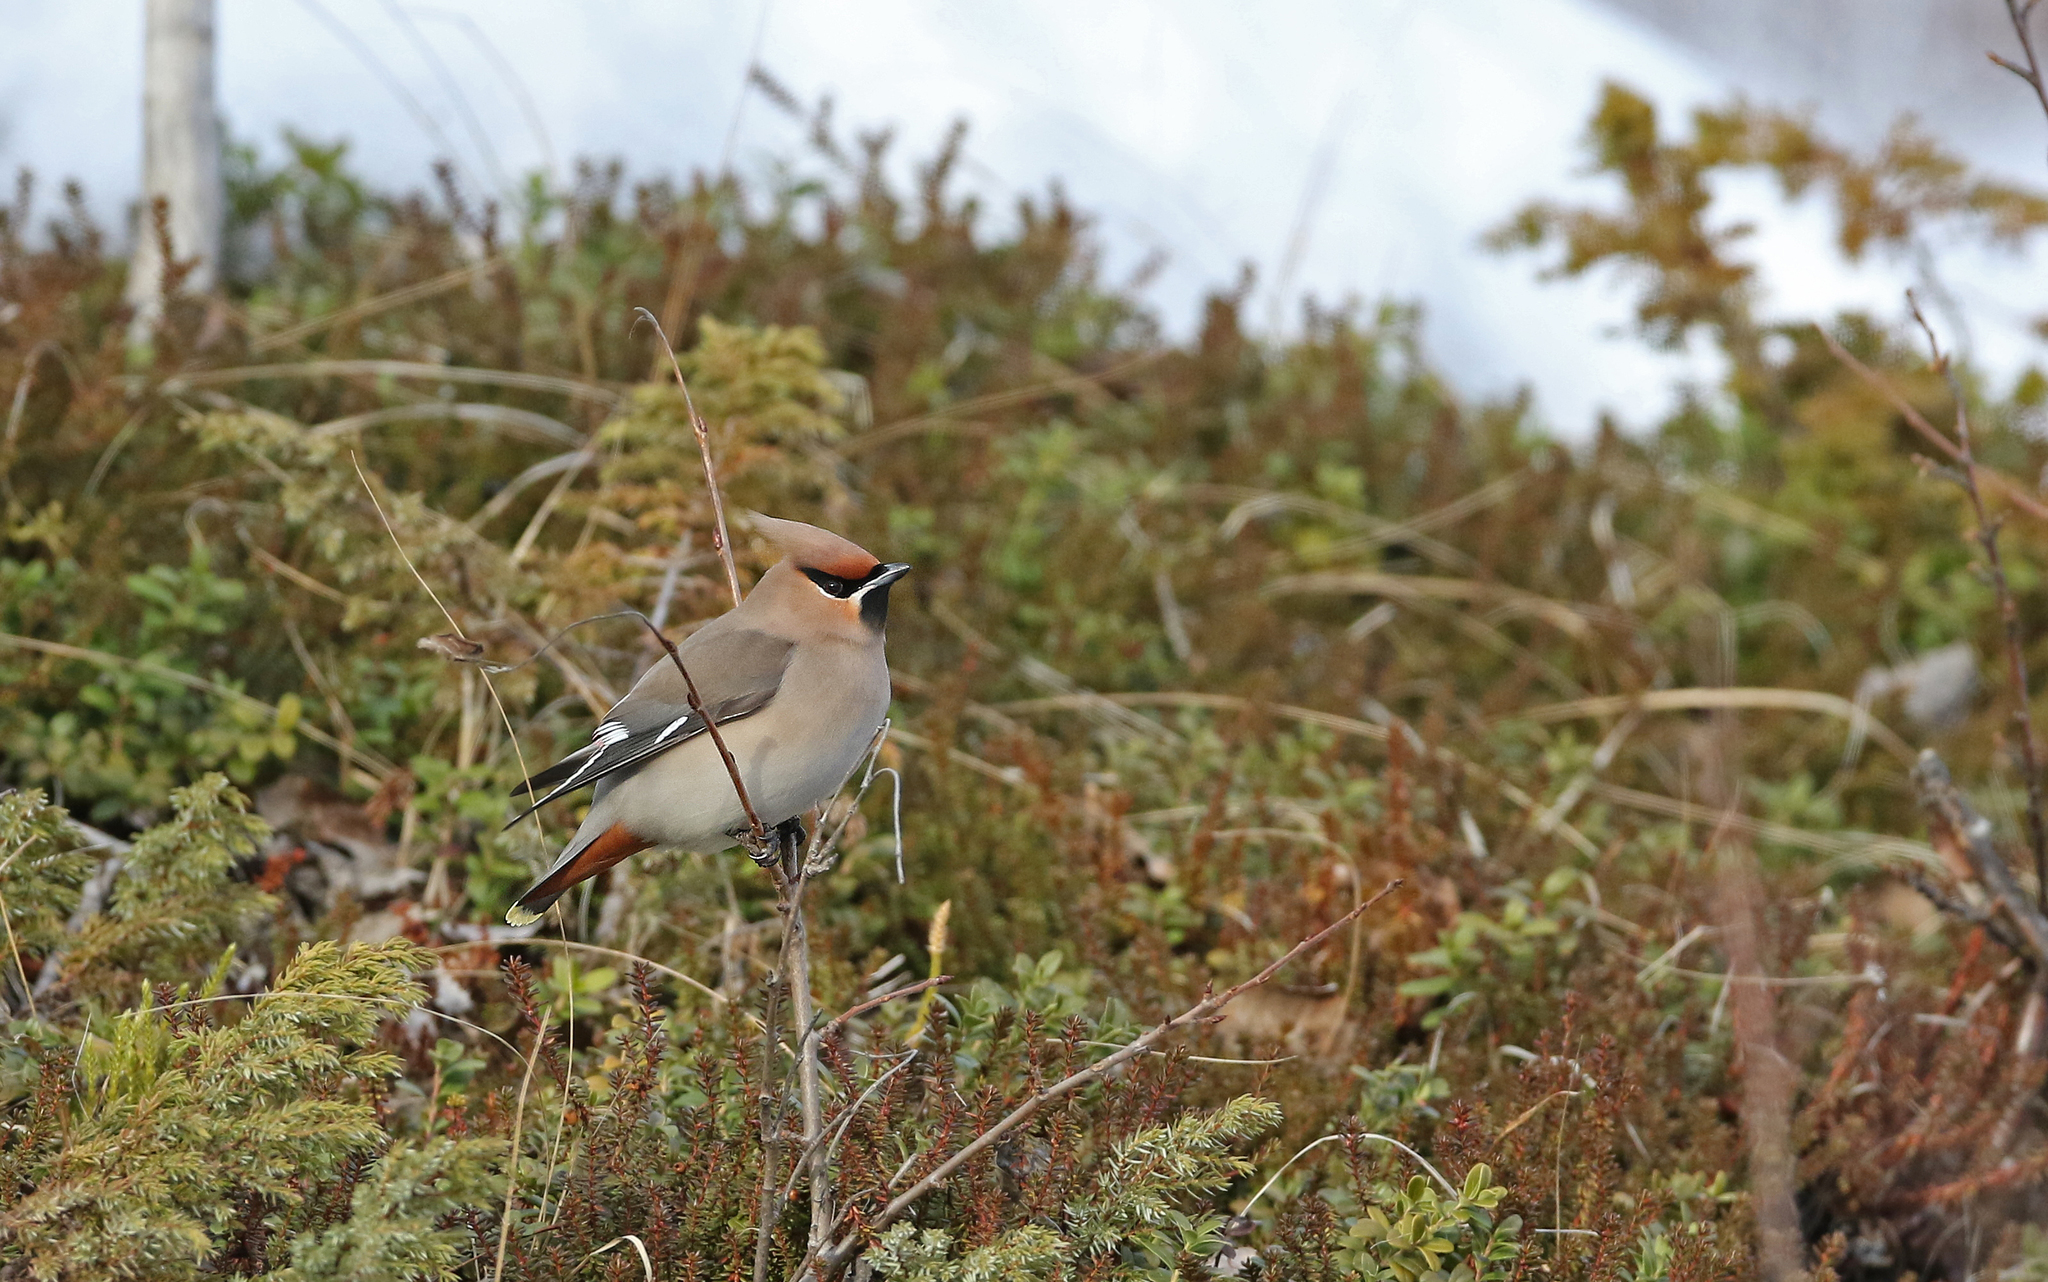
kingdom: Animalia
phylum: Chordata
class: Aves
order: Passeriformes
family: Bombycillidae
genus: Bombycilla
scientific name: Bombycilla garrulus
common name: Bohemian waxwing
